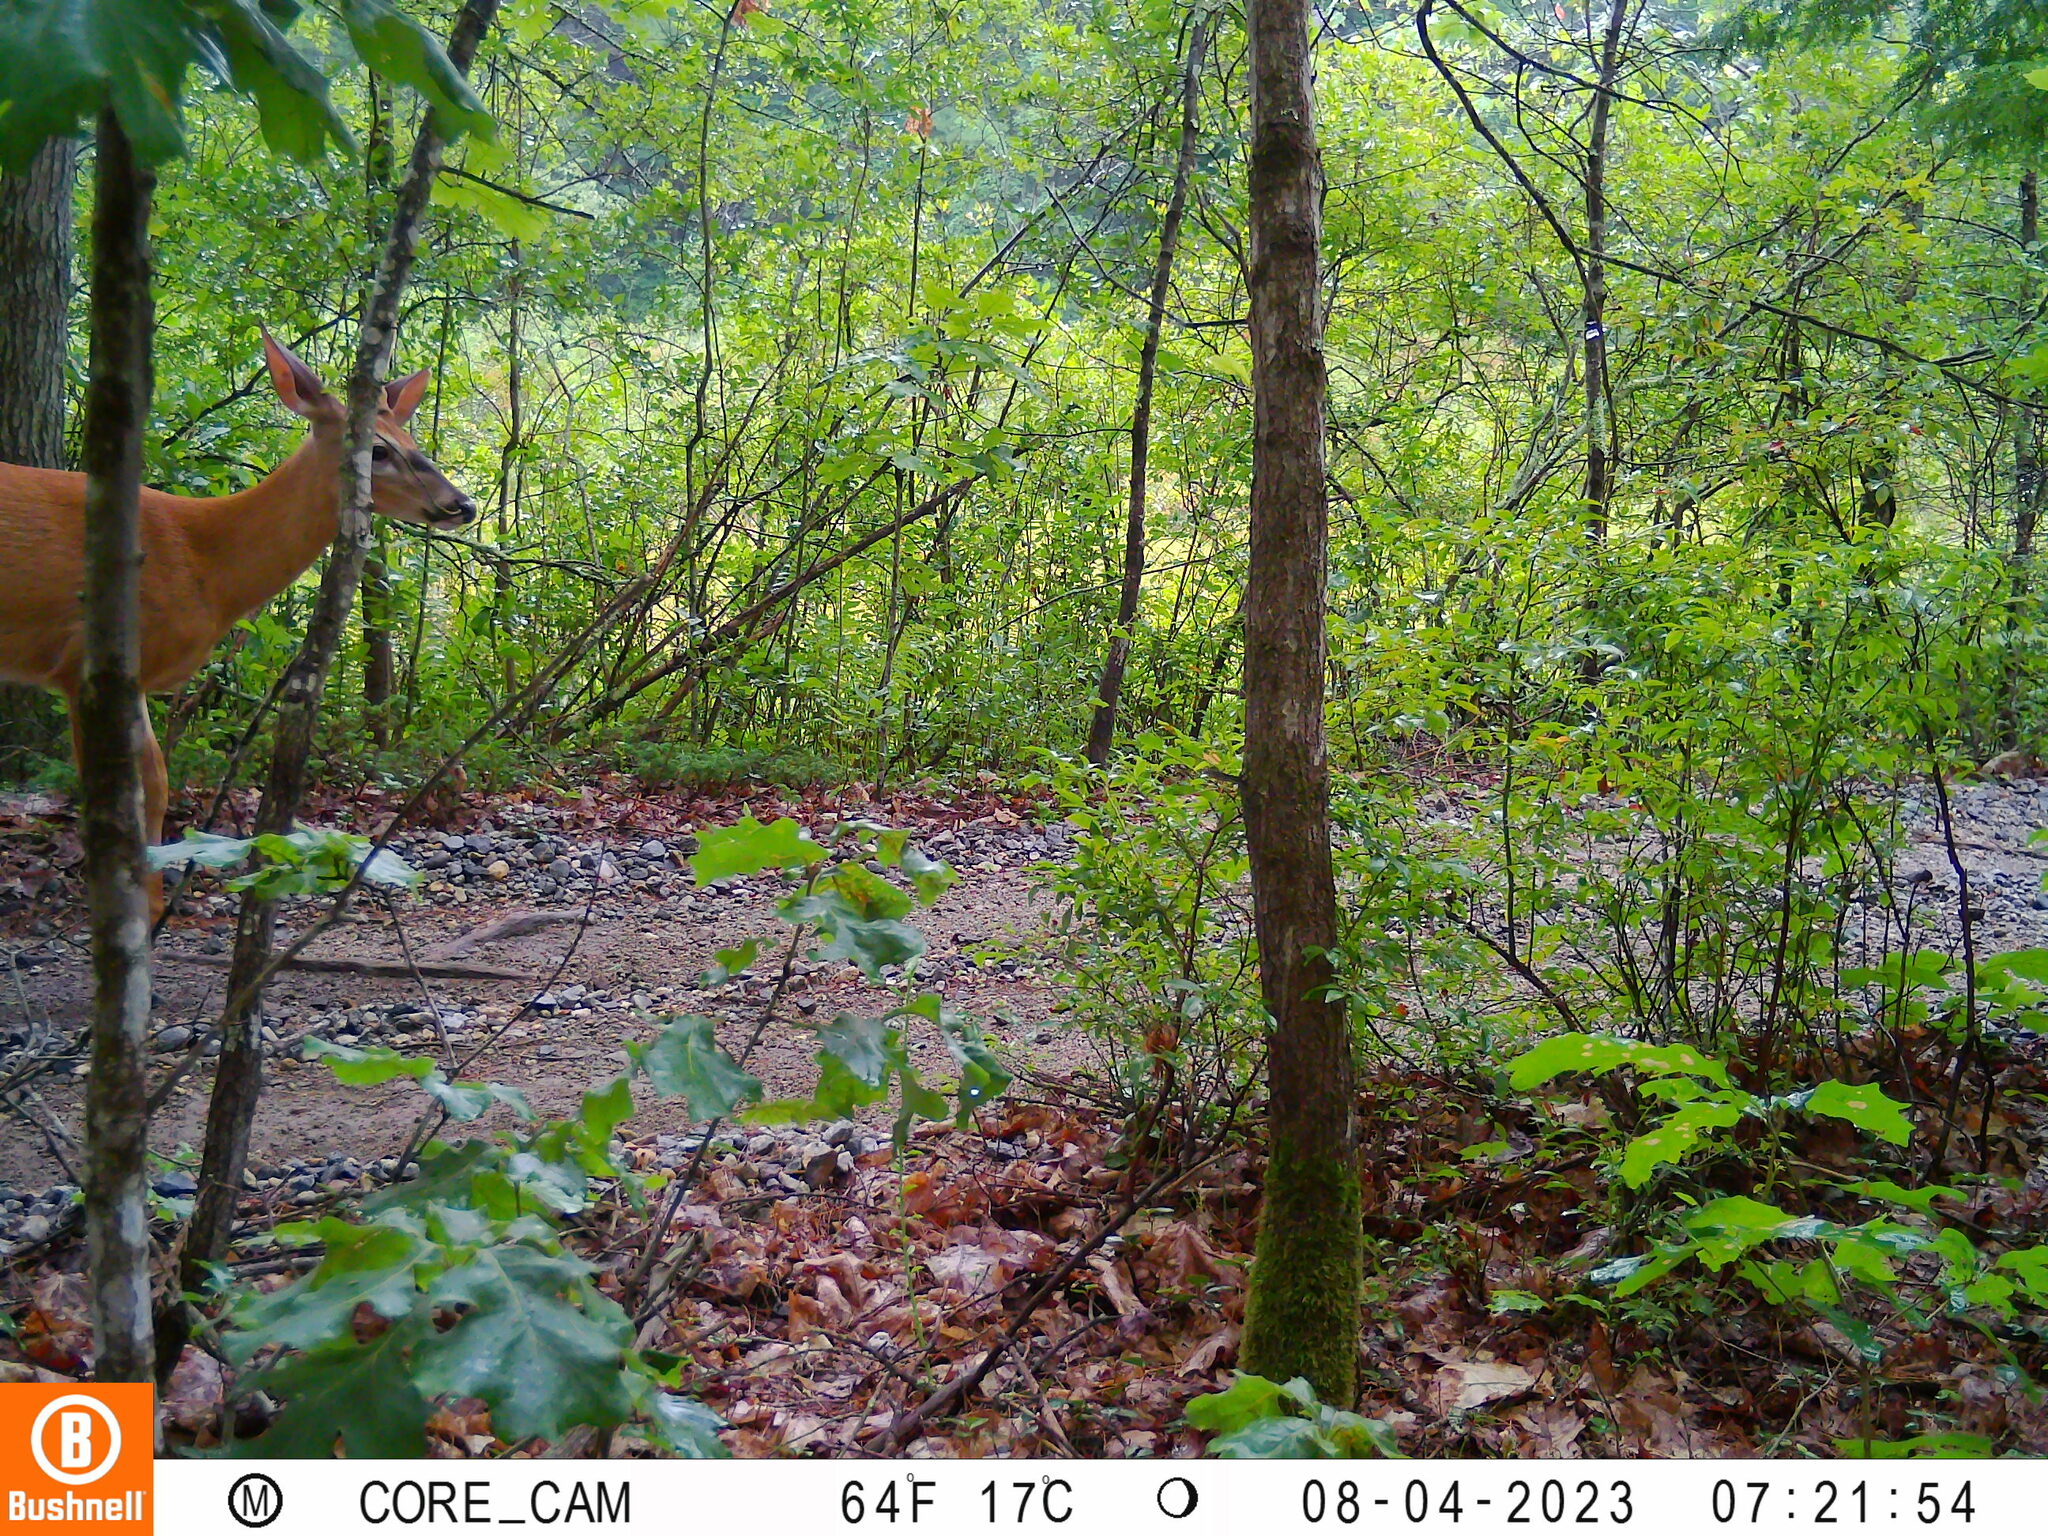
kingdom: Animalia
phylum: Chordata
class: Mammalia
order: Artiodactyla
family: Cervidae
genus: Odocoileus
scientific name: Odocoileus virginianus
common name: White-tailed deer
